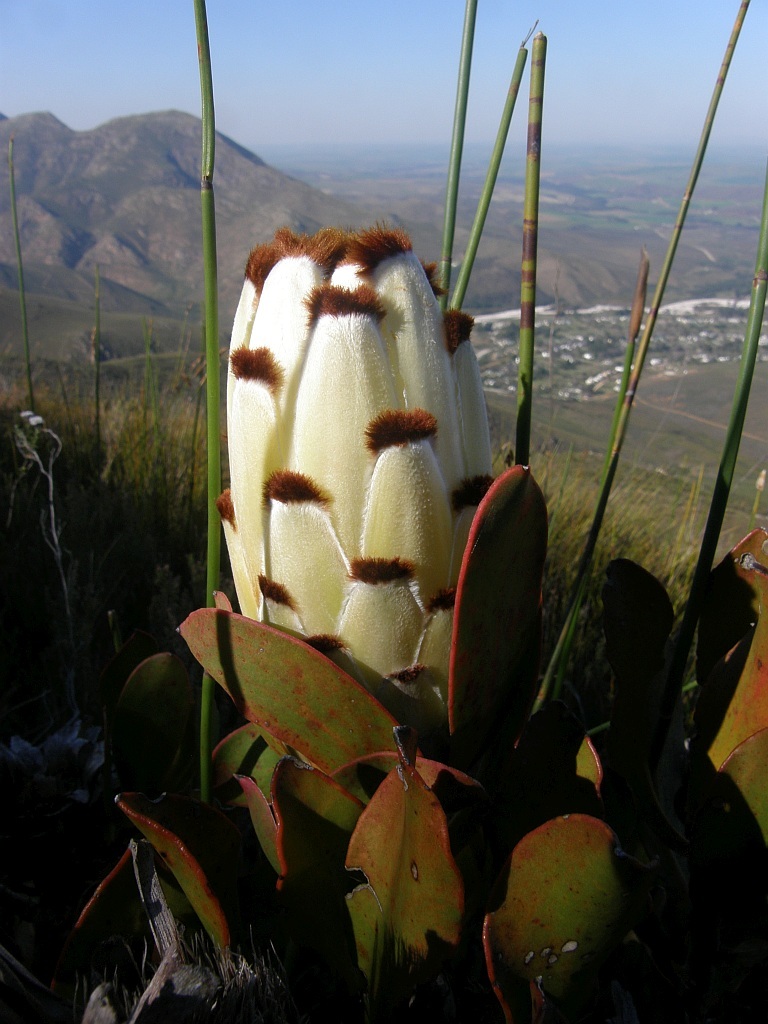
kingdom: Plantae
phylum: Tracheophyta
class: Magnoliopsida
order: Proteales
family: Proteaceae
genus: Protea
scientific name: Protea speciosa
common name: Brown-beard sugarbush
